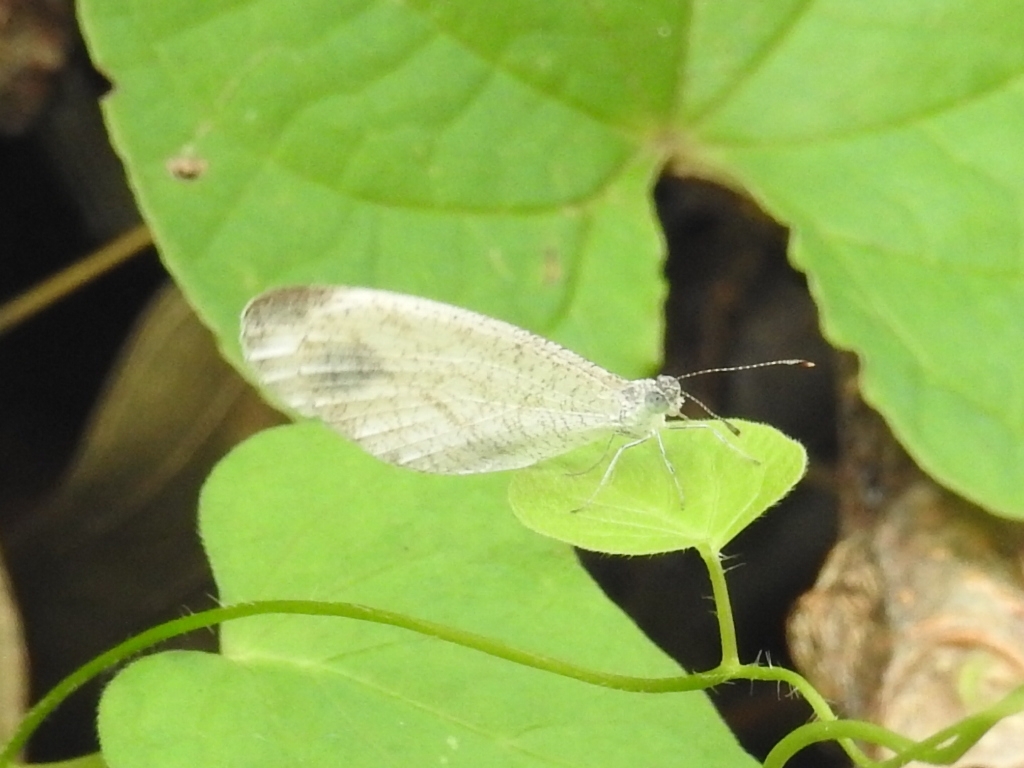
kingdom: Animalia
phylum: Arthropoda
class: Insecta
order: Lepidoptera
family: Pieridae
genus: Leptosia
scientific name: Leptosia nina
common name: Psyche
